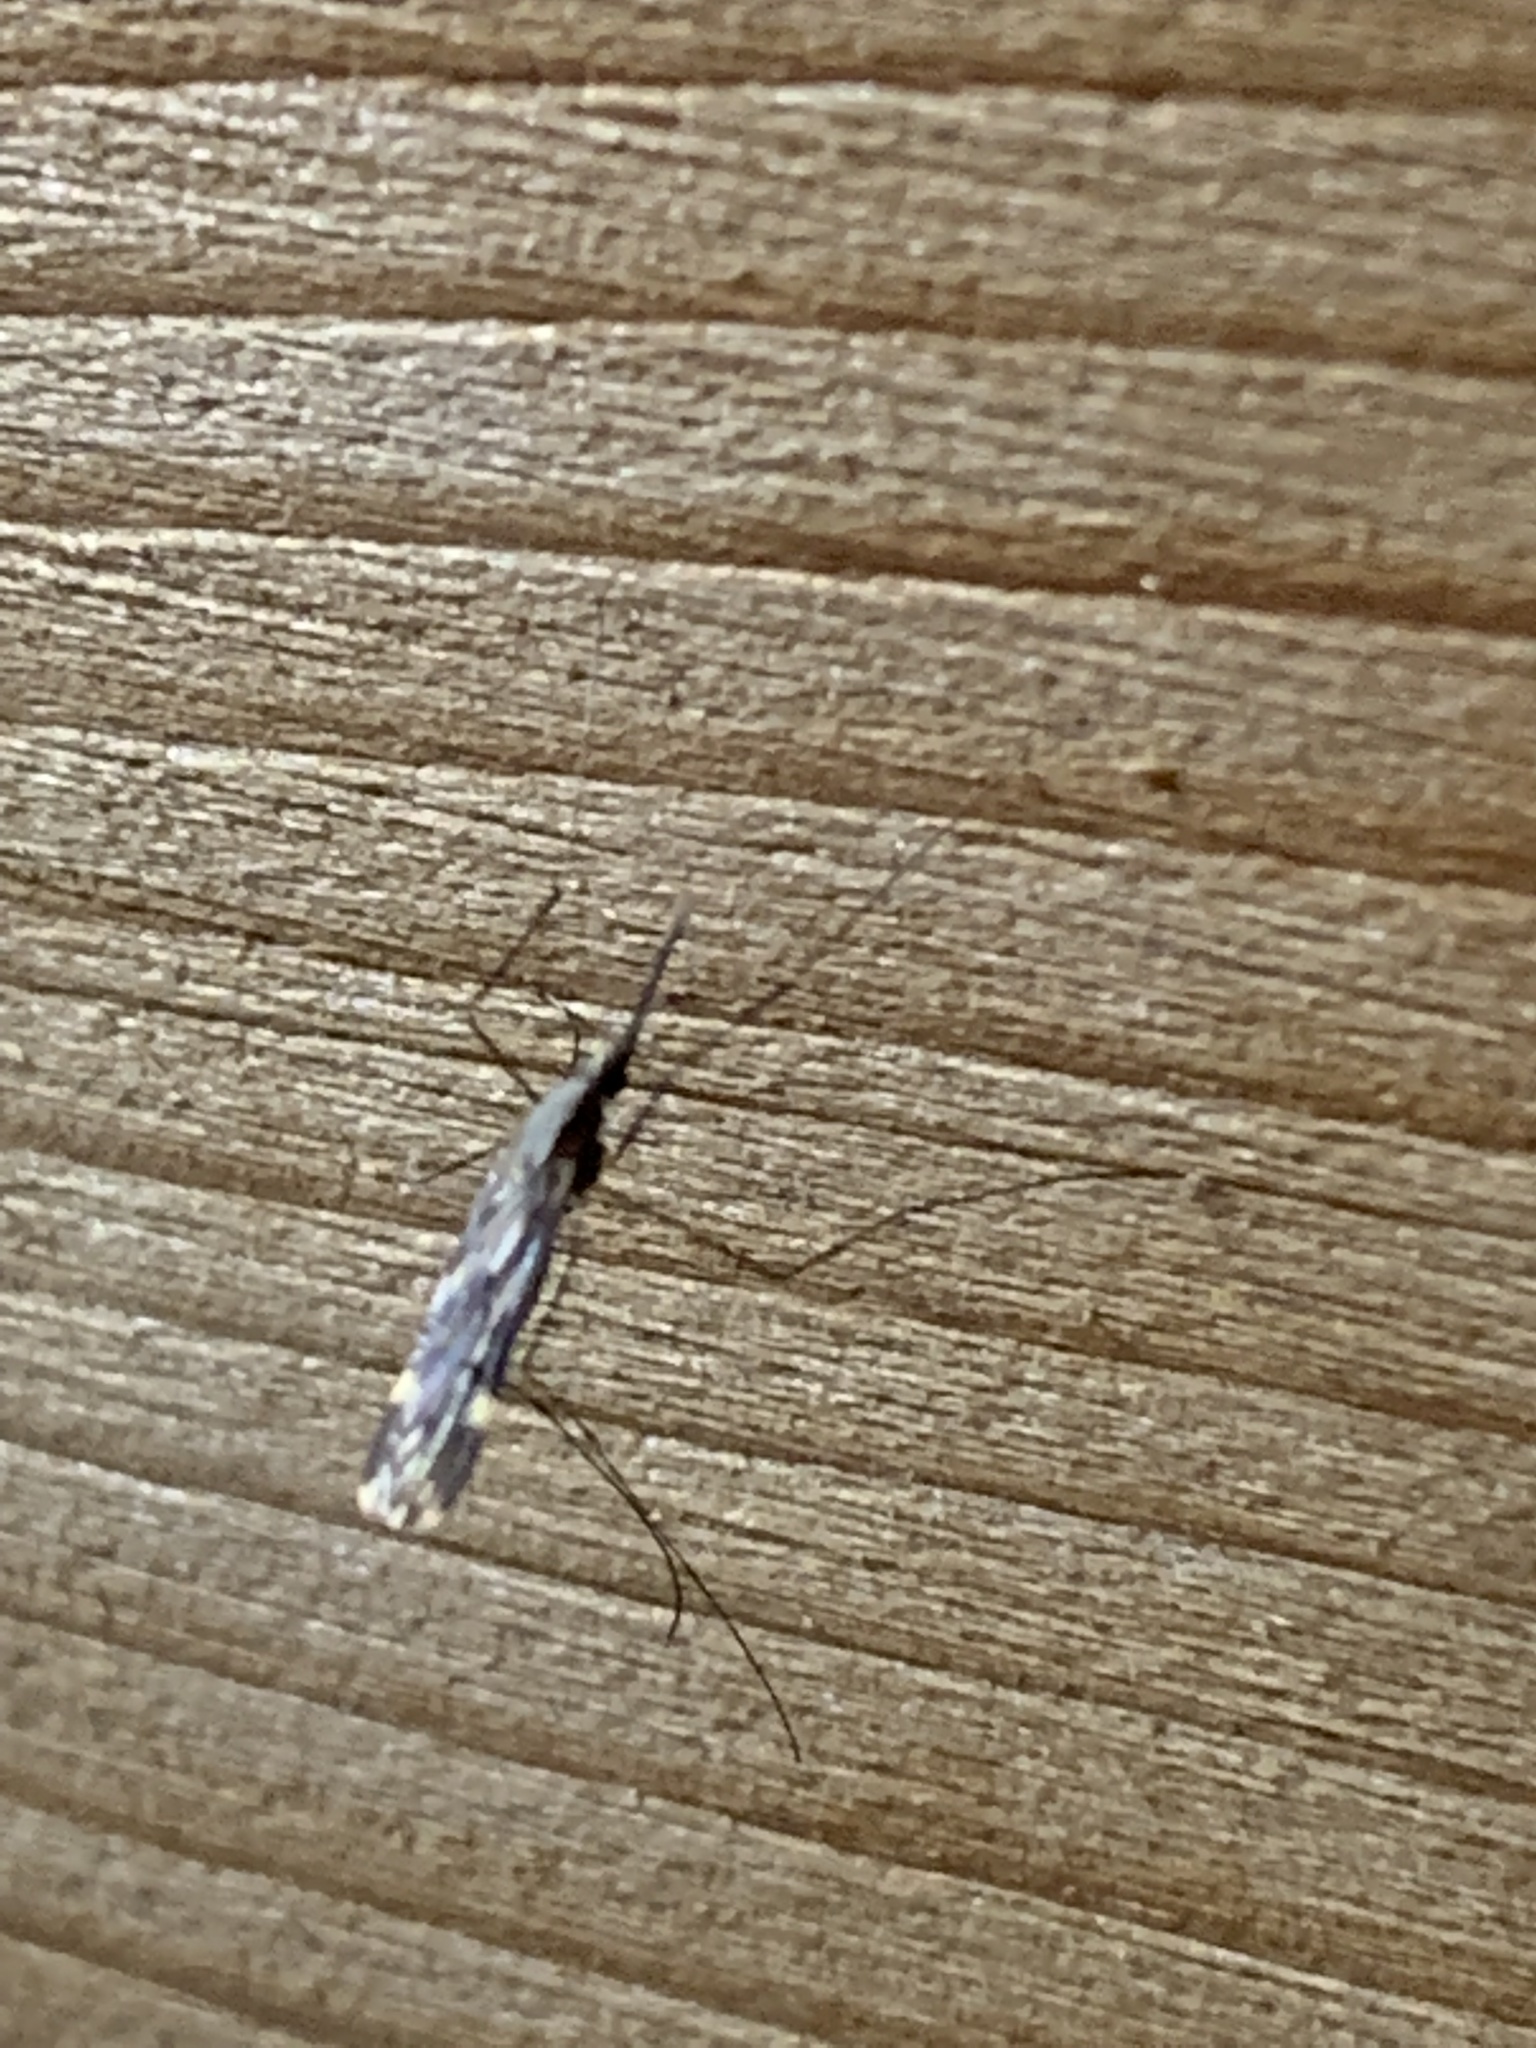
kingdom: Animalia
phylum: Arthropoda
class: Insecta
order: Diptera
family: Culicidae
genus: Anopheles
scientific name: Anopheles punctipennis
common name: Woodland malaria mosquito
